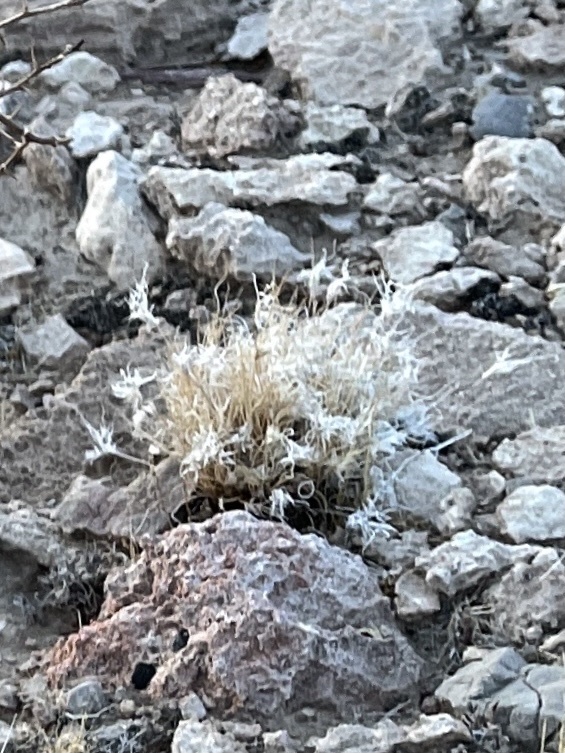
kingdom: Plantae
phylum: Tracheophyta
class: Liliopsida
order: Poales
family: Poaceae
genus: Dasyochloa
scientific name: Dasyochloa pulchella
